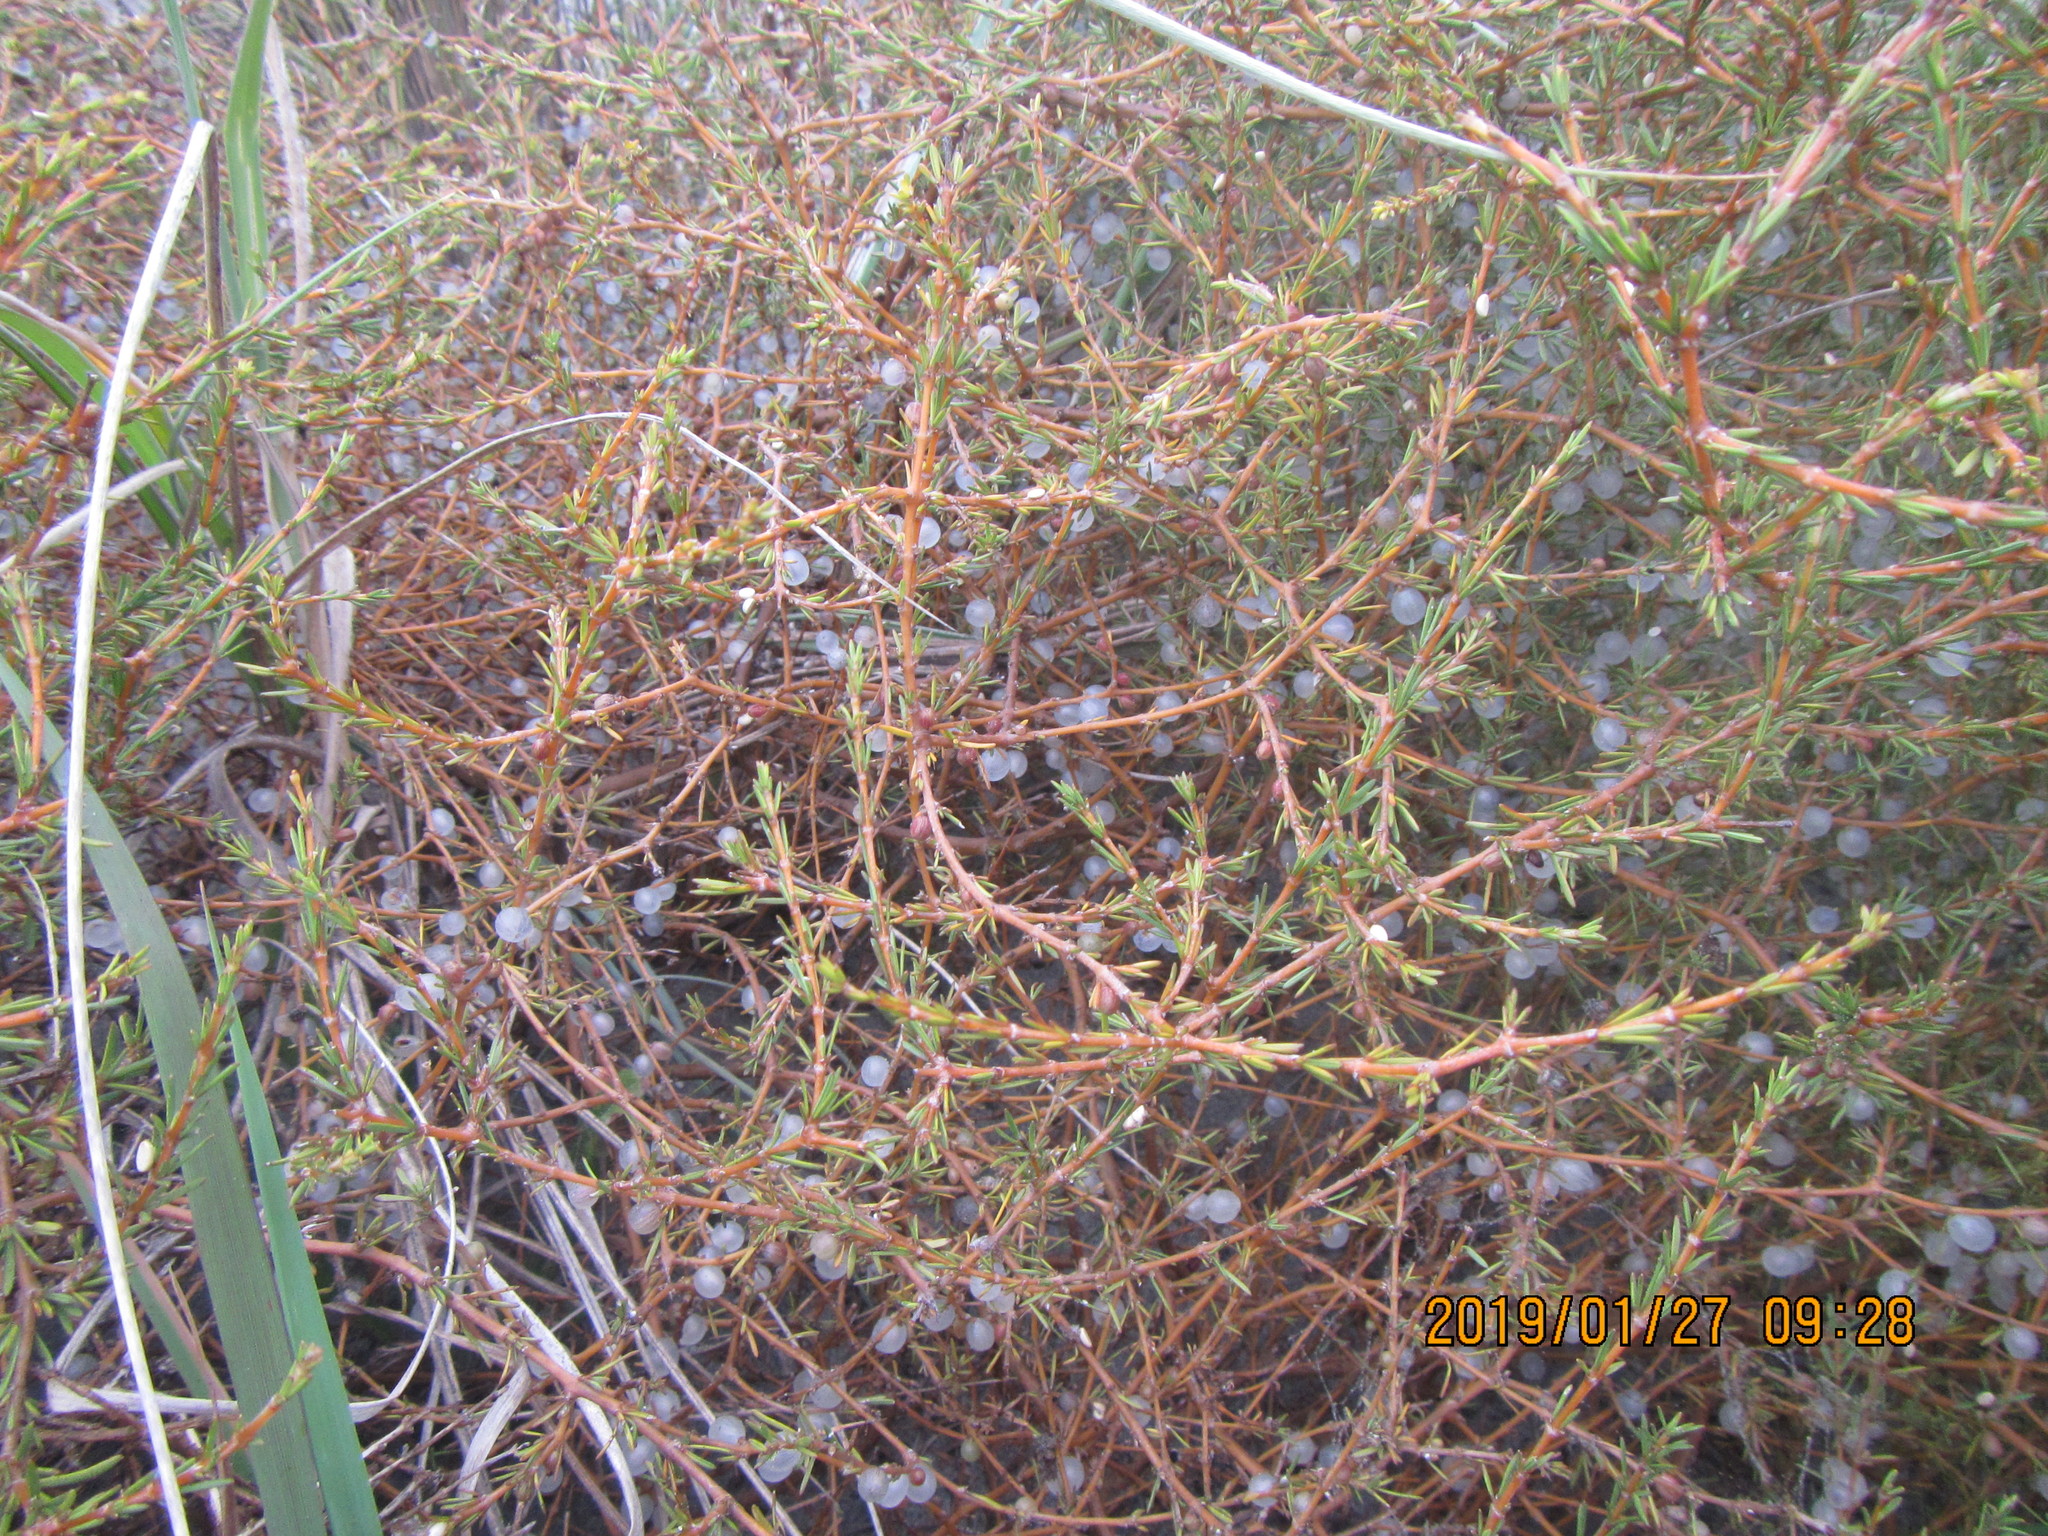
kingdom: Plantae
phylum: Tracheophyta
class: Magnoliopsida
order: Gentianales
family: Rubiaceae
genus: Coprosma
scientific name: Coprosma acerosa
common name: Sand coprosma
